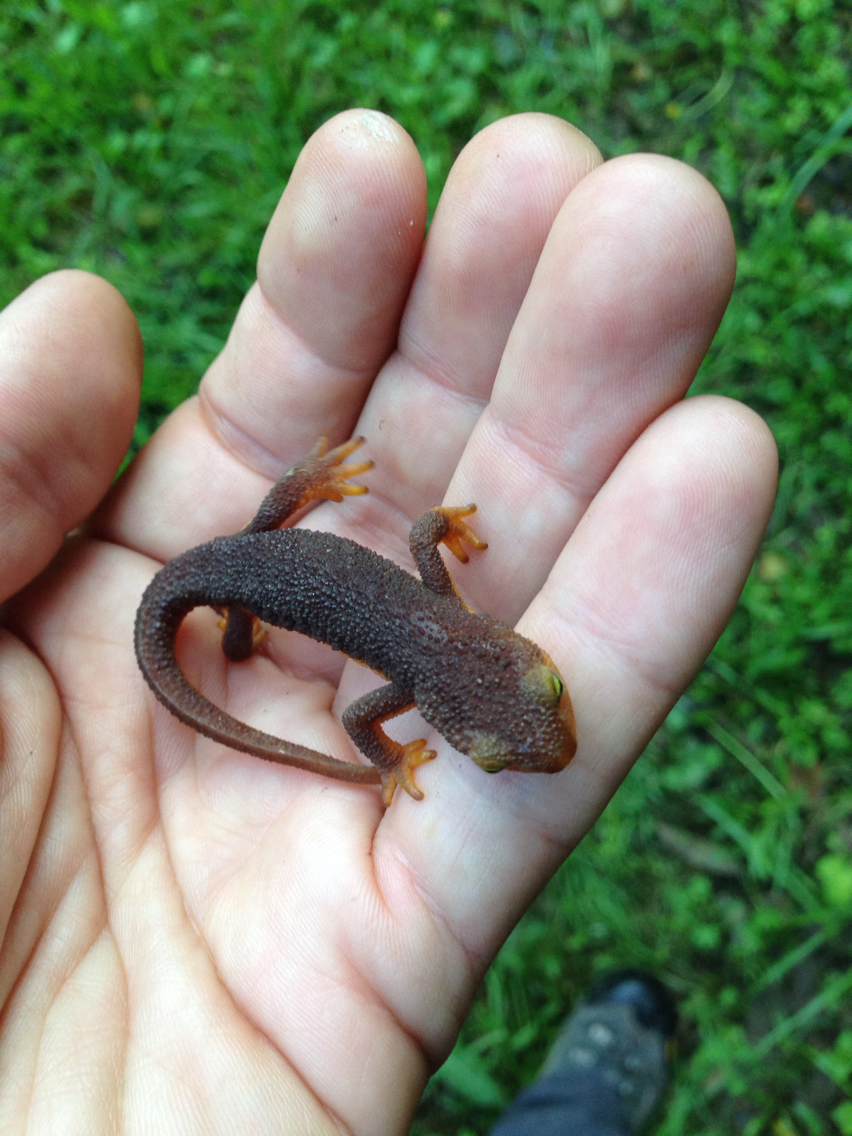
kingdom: Animalia
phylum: Chordata
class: Amphibia
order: Caudata
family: Salamandridae
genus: Taricha
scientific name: Taricha torosa
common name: California newt
